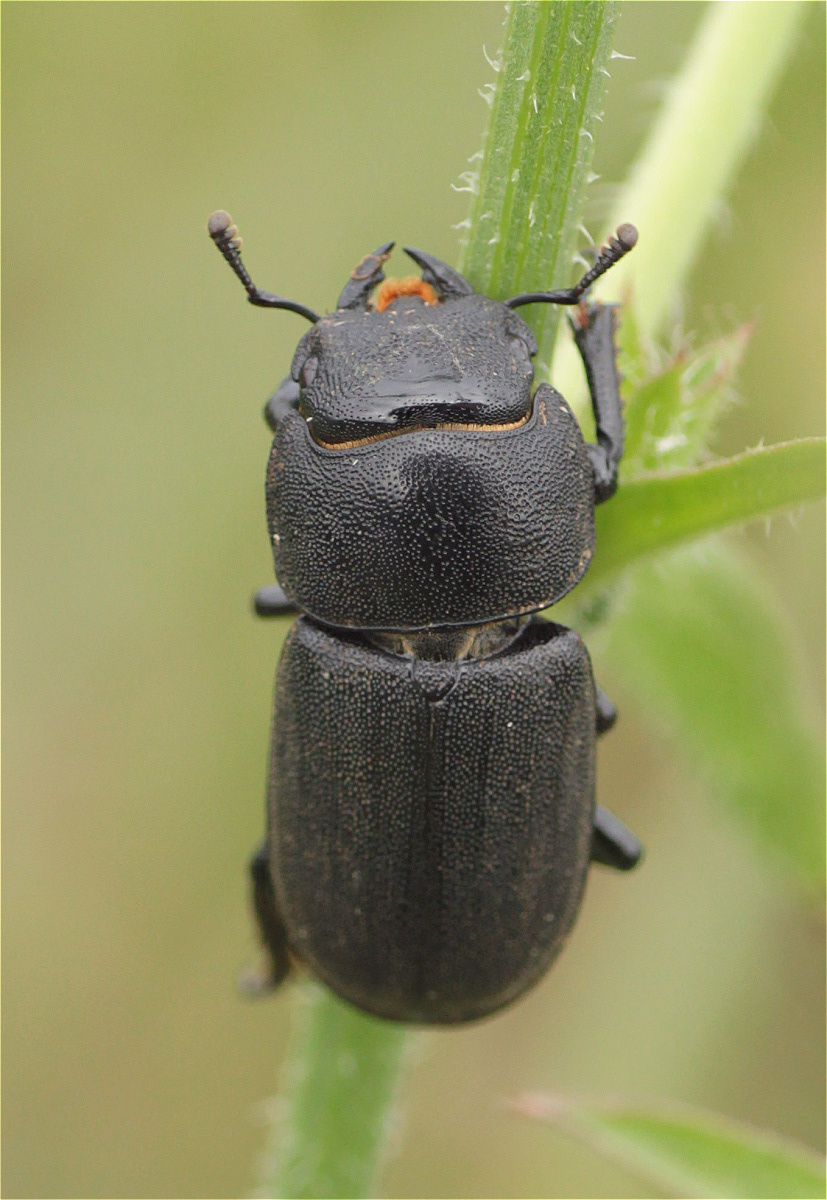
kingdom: Animalia
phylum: Arthropoda
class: Insecta
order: Coleoptera
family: Lucanidae
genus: Dorcus
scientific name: Dorcus parallelipipedus
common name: Lesser stag beetle
